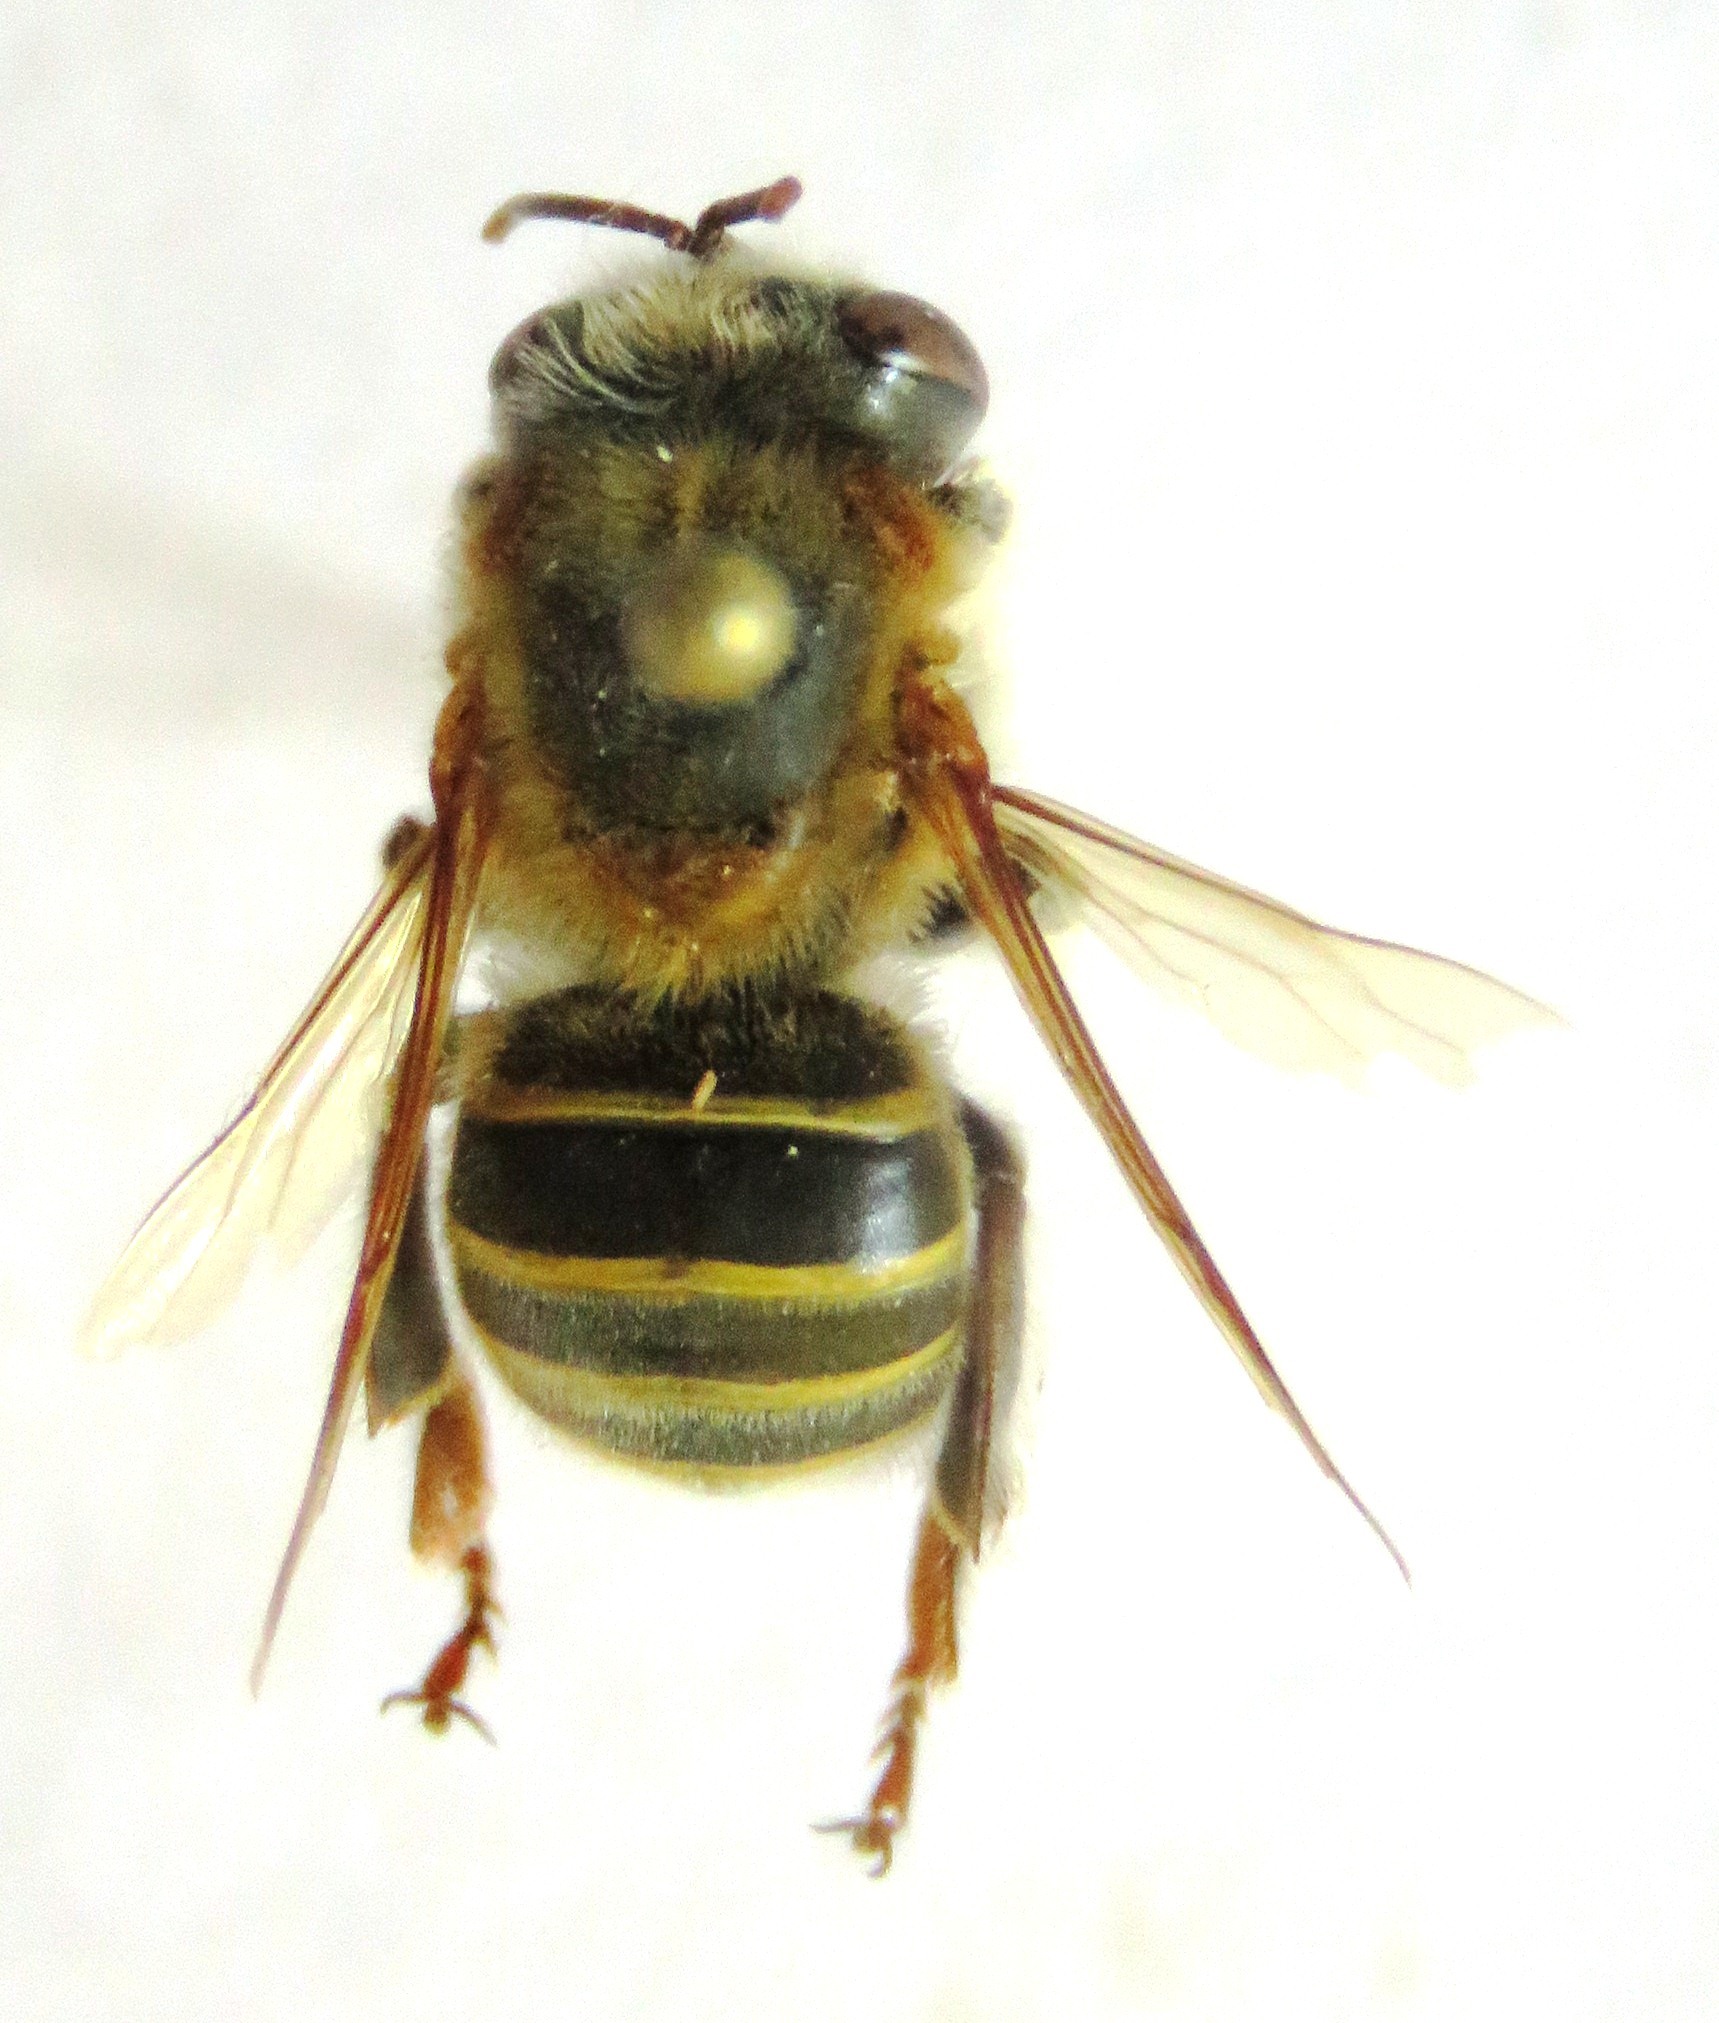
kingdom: Animalia
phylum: Arthropoda
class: Insecta
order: Hymenoptera
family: Apidae
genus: Melipona
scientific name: Melipona beecheii
